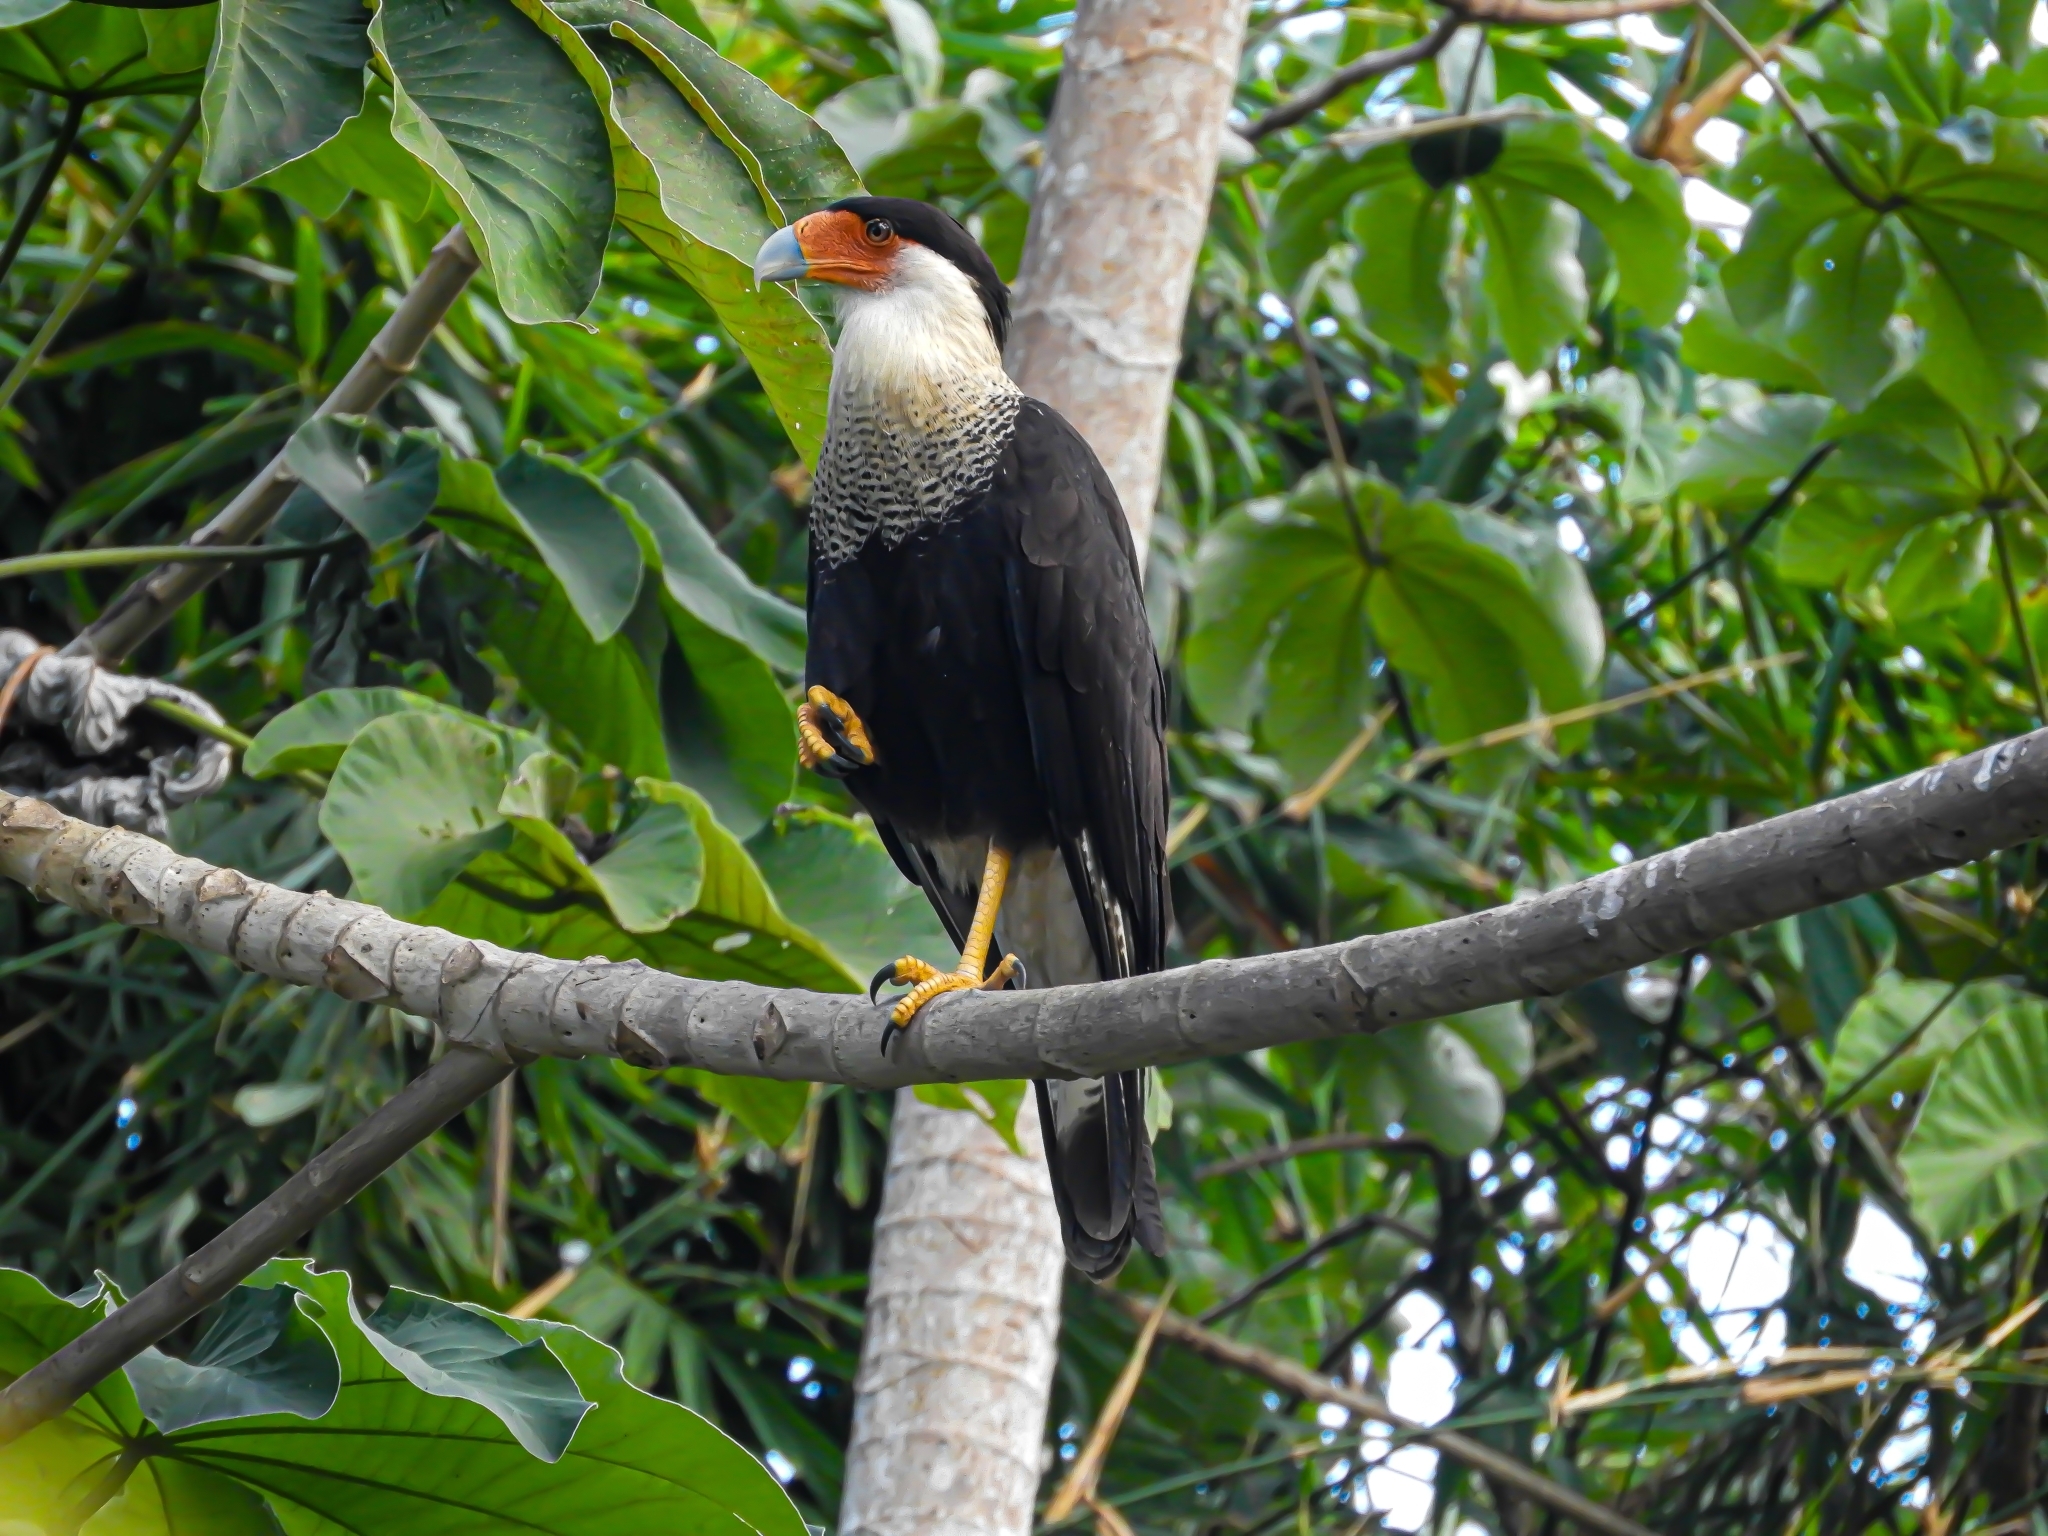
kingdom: Animalia
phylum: Chordata
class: Aves
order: Falconiformes
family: Falconidae
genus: Caracara
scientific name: Caracara plancus
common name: Southern caracara
